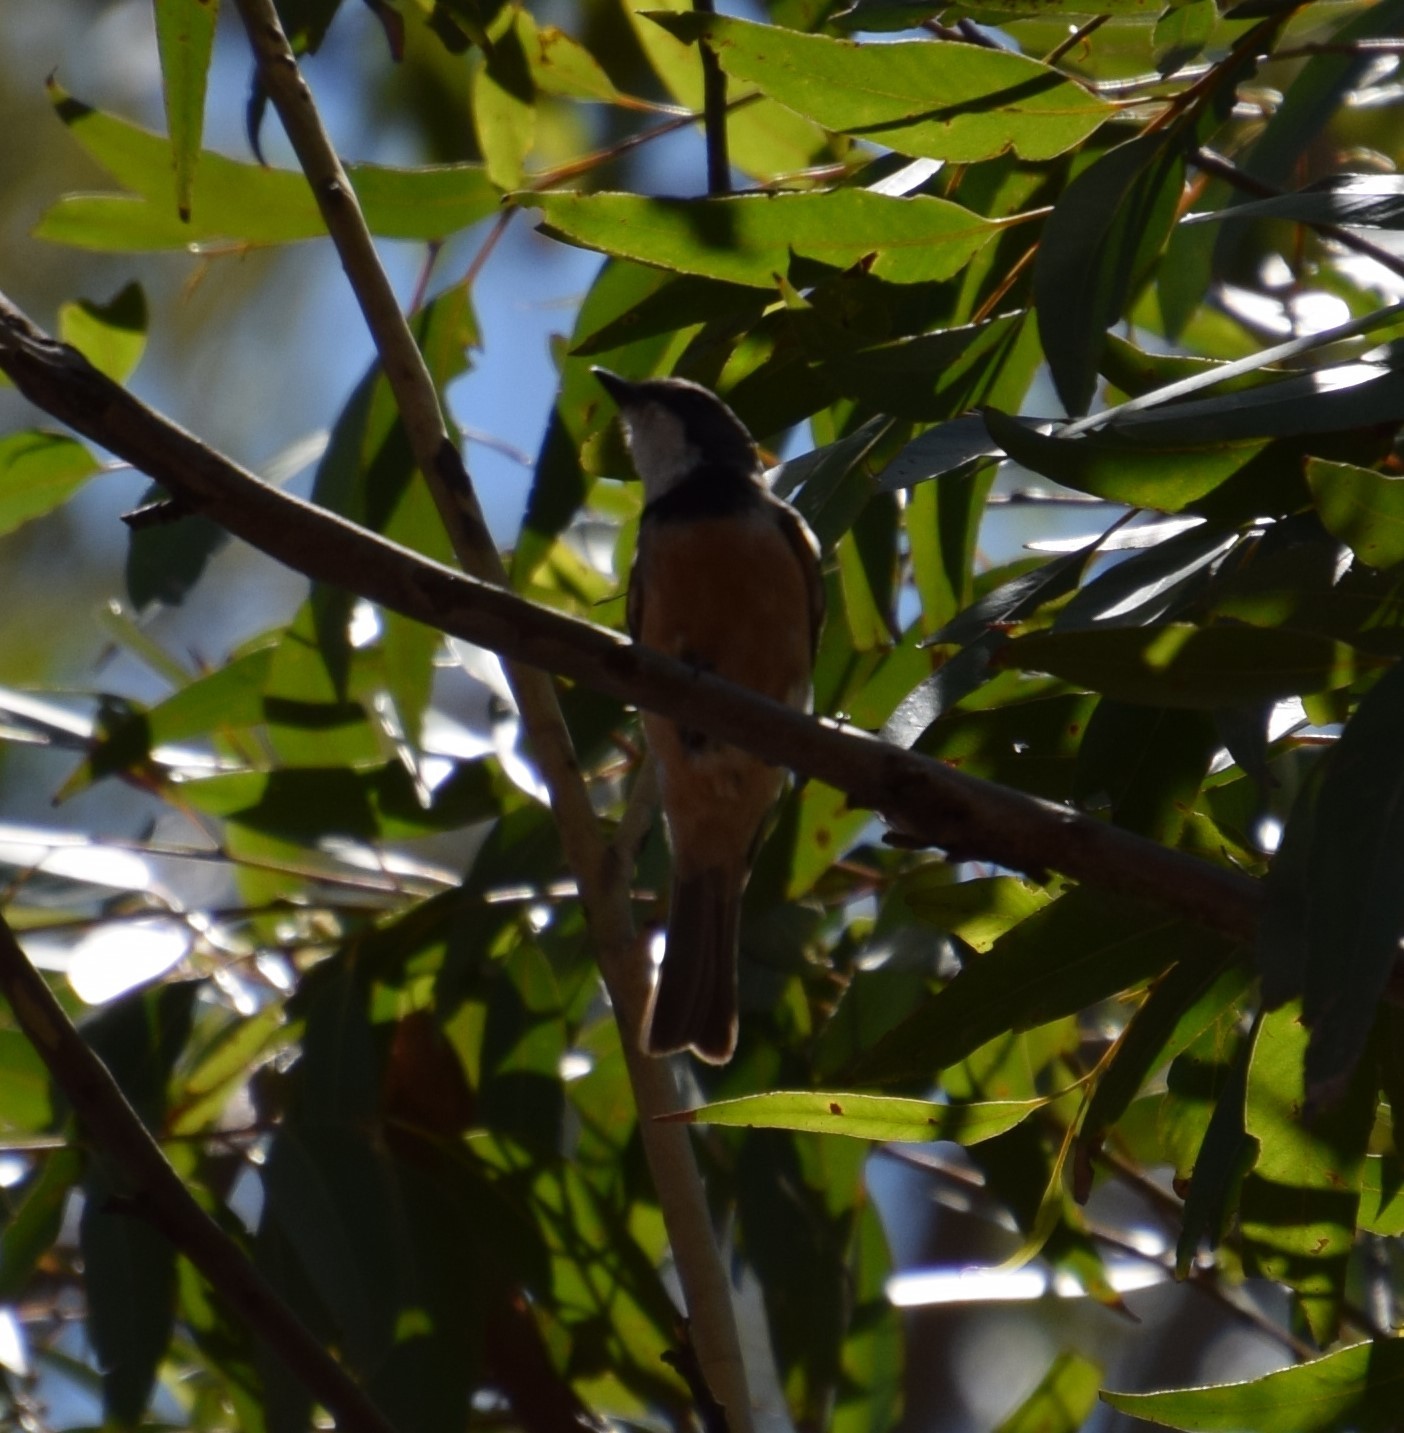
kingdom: Animalia
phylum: Chordata
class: Aves
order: Passeriformes
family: Pachycephalidae
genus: Pachycephala
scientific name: Pachycephala rufiventris
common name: Rufous whistler
